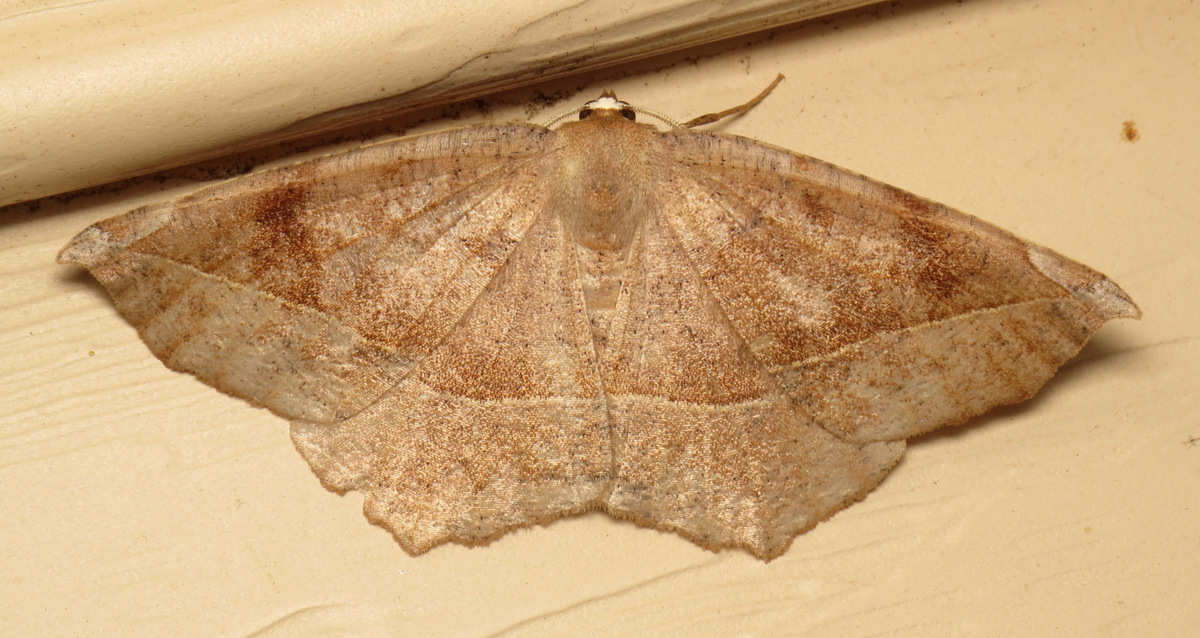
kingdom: Animalia
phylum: Arthropoda
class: Insecta
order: Lepidoptera
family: Geometridae
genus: Eutrapela
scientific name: Eutrapela clemataria
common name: Curved-toothed geometer
